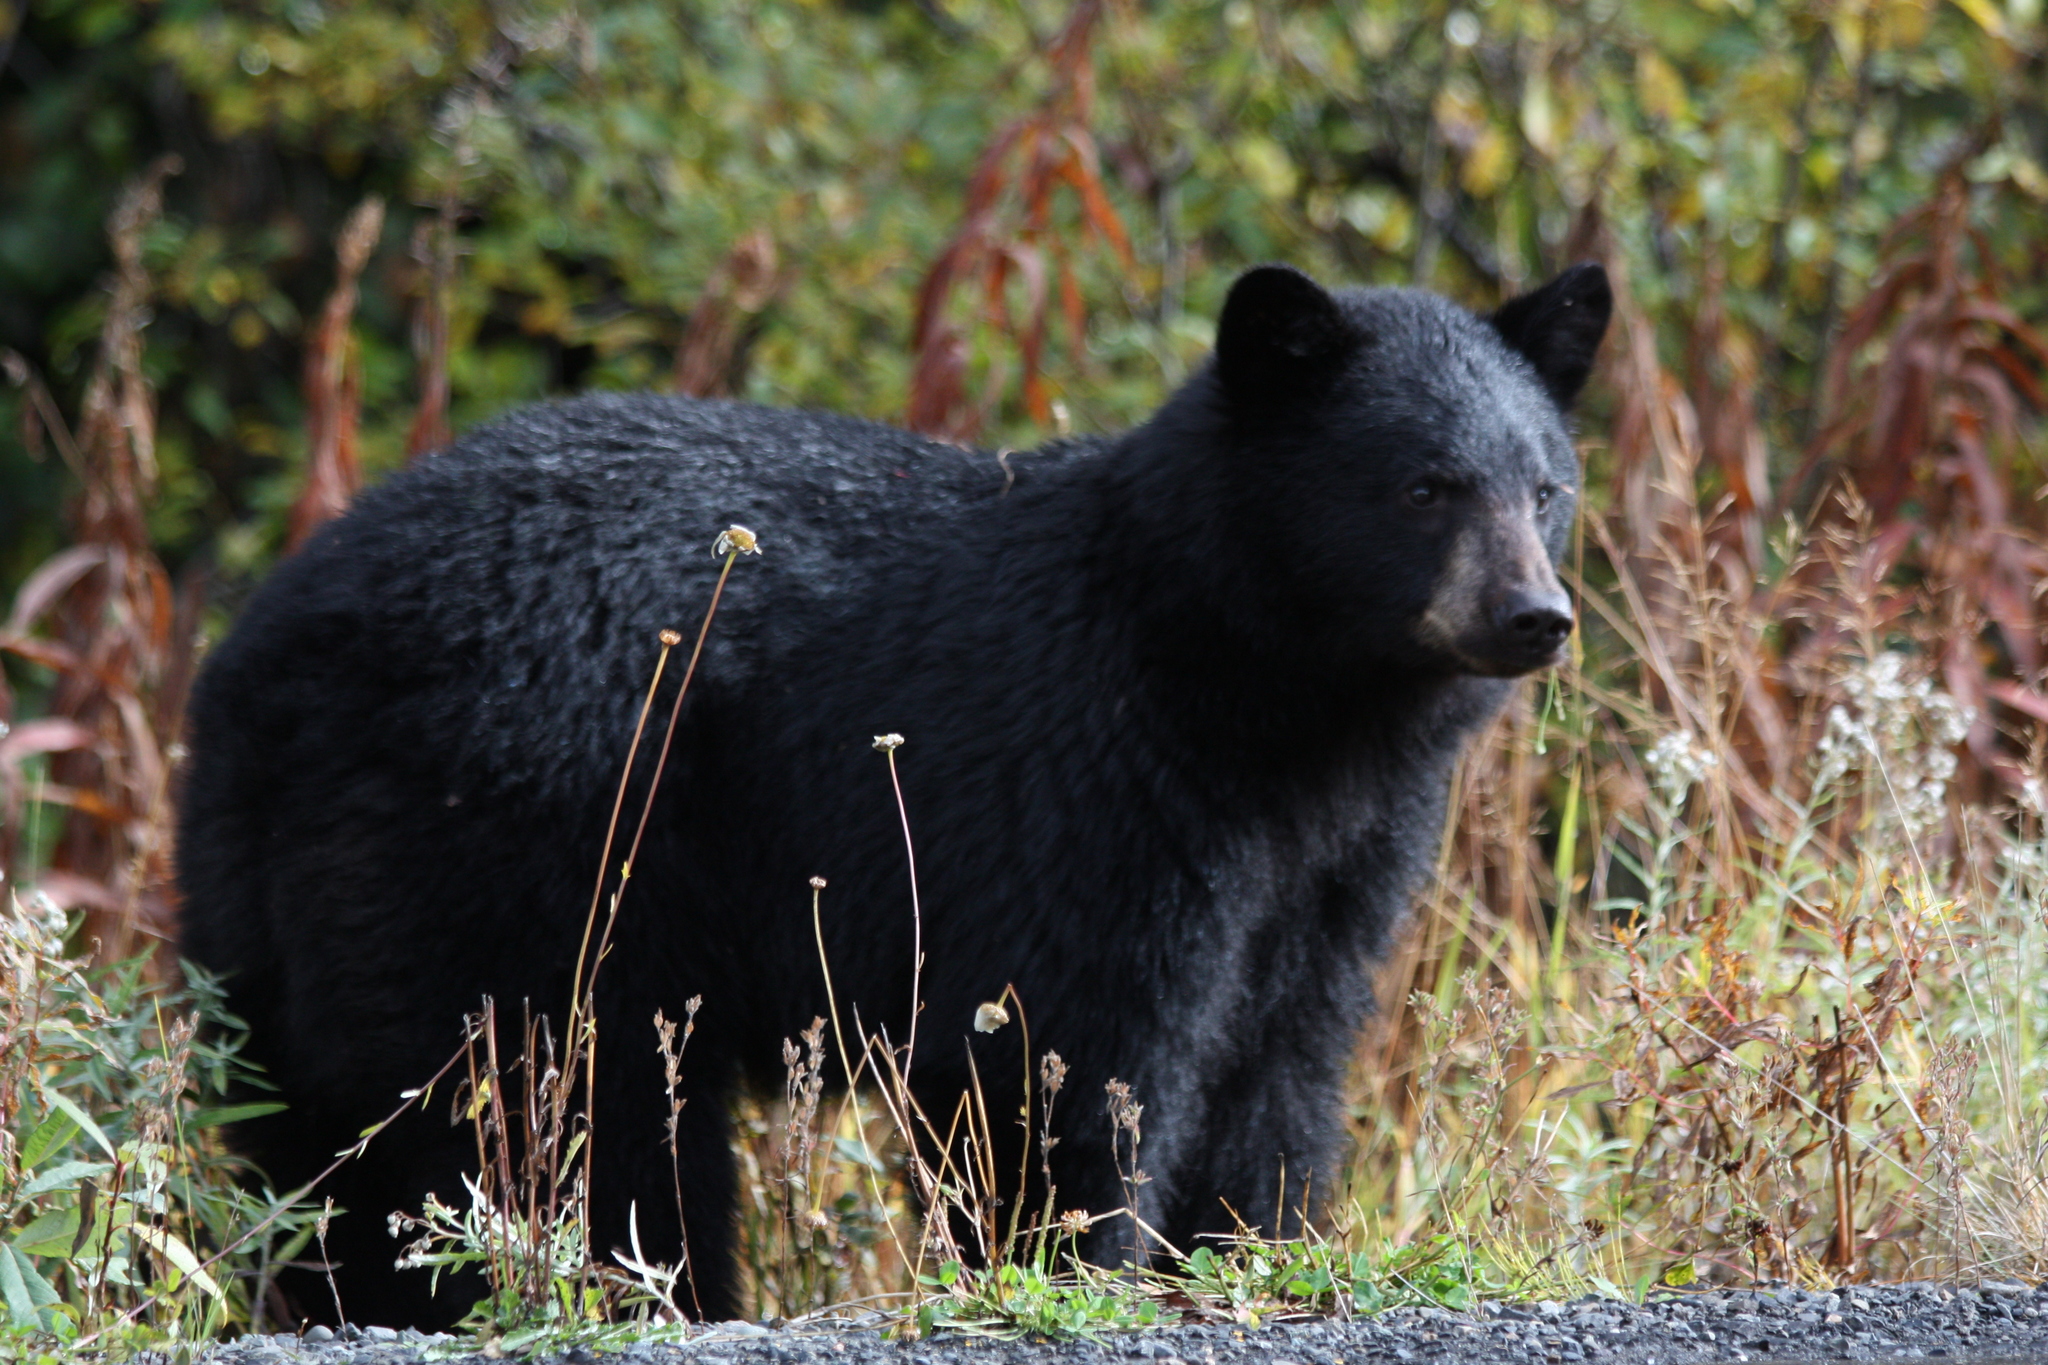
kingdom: Animalia
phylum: Chordata
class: Mammalia
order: Carnivora
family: Ursidae
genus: Ursus
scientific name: Ursus americanus
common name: American black bear
